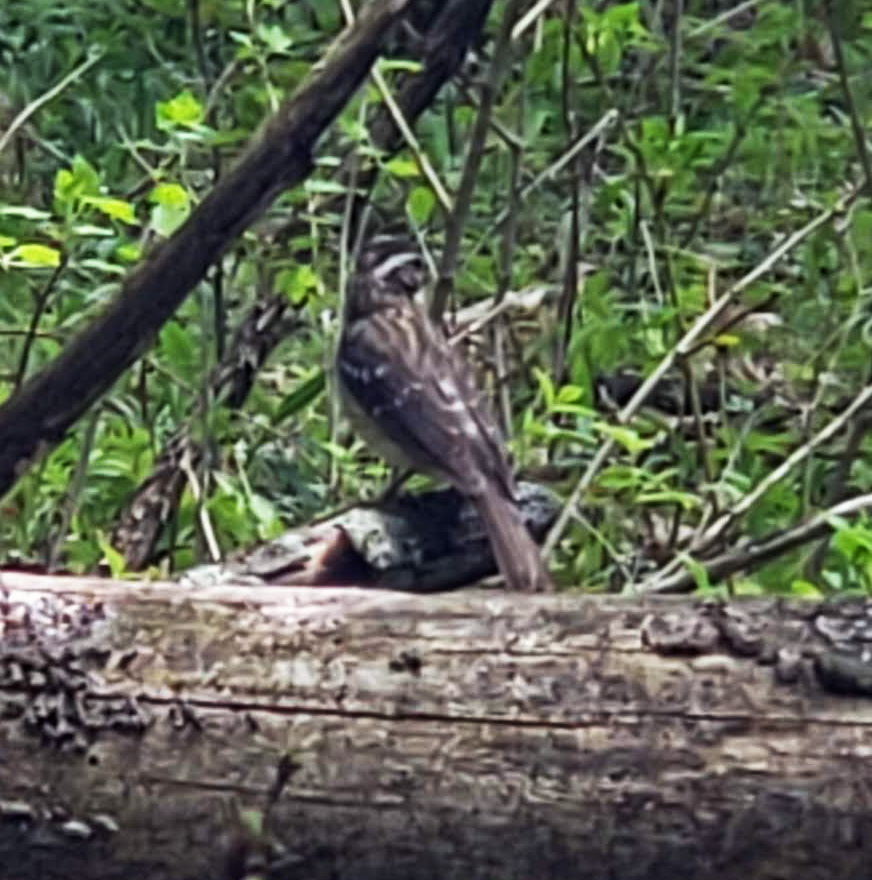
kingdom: Animalia
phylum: Chordata
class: Aves
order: Passeriformes
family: Cardinalidae
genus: Pheucticus
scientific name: Pheucticus ludovicianus
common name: Rose-breasted grosbeak
